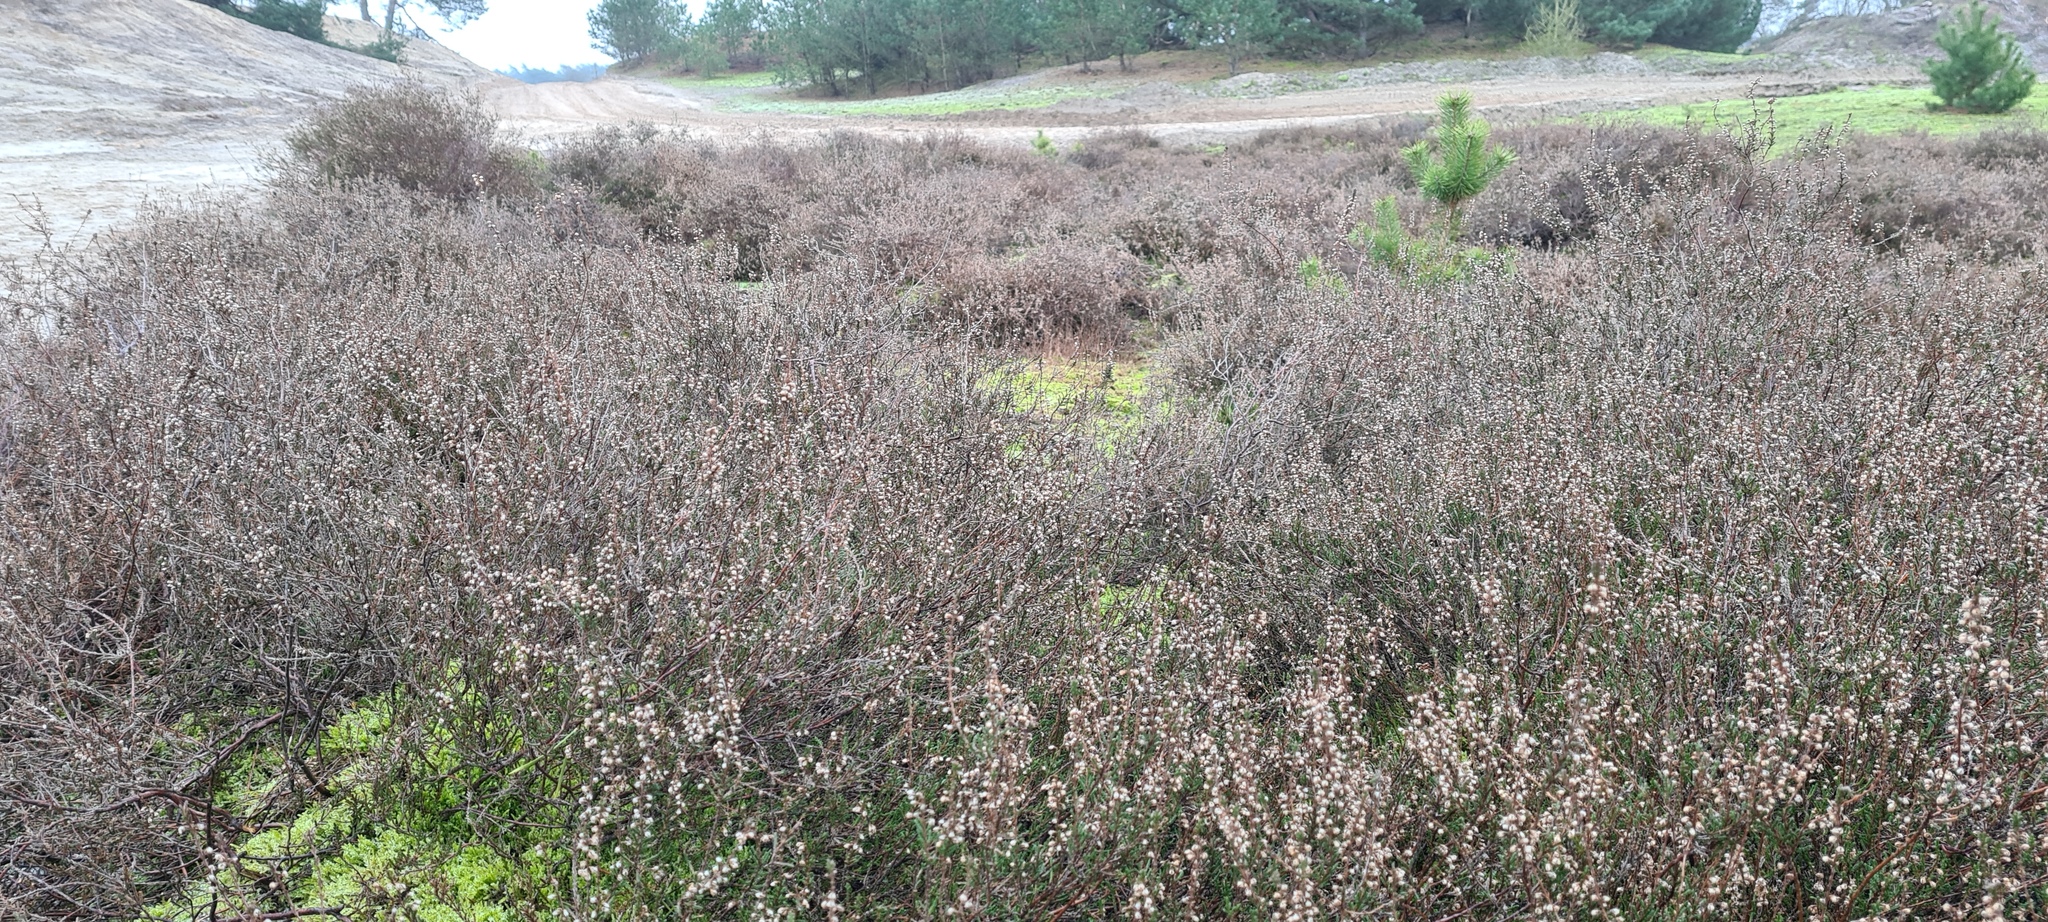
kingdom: Plantae
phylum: Tracheophyta
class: Magnoliopsida
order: Ericales
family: Ericaceae
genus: Calluna
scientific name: Calluna vulgaris
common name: Heather
